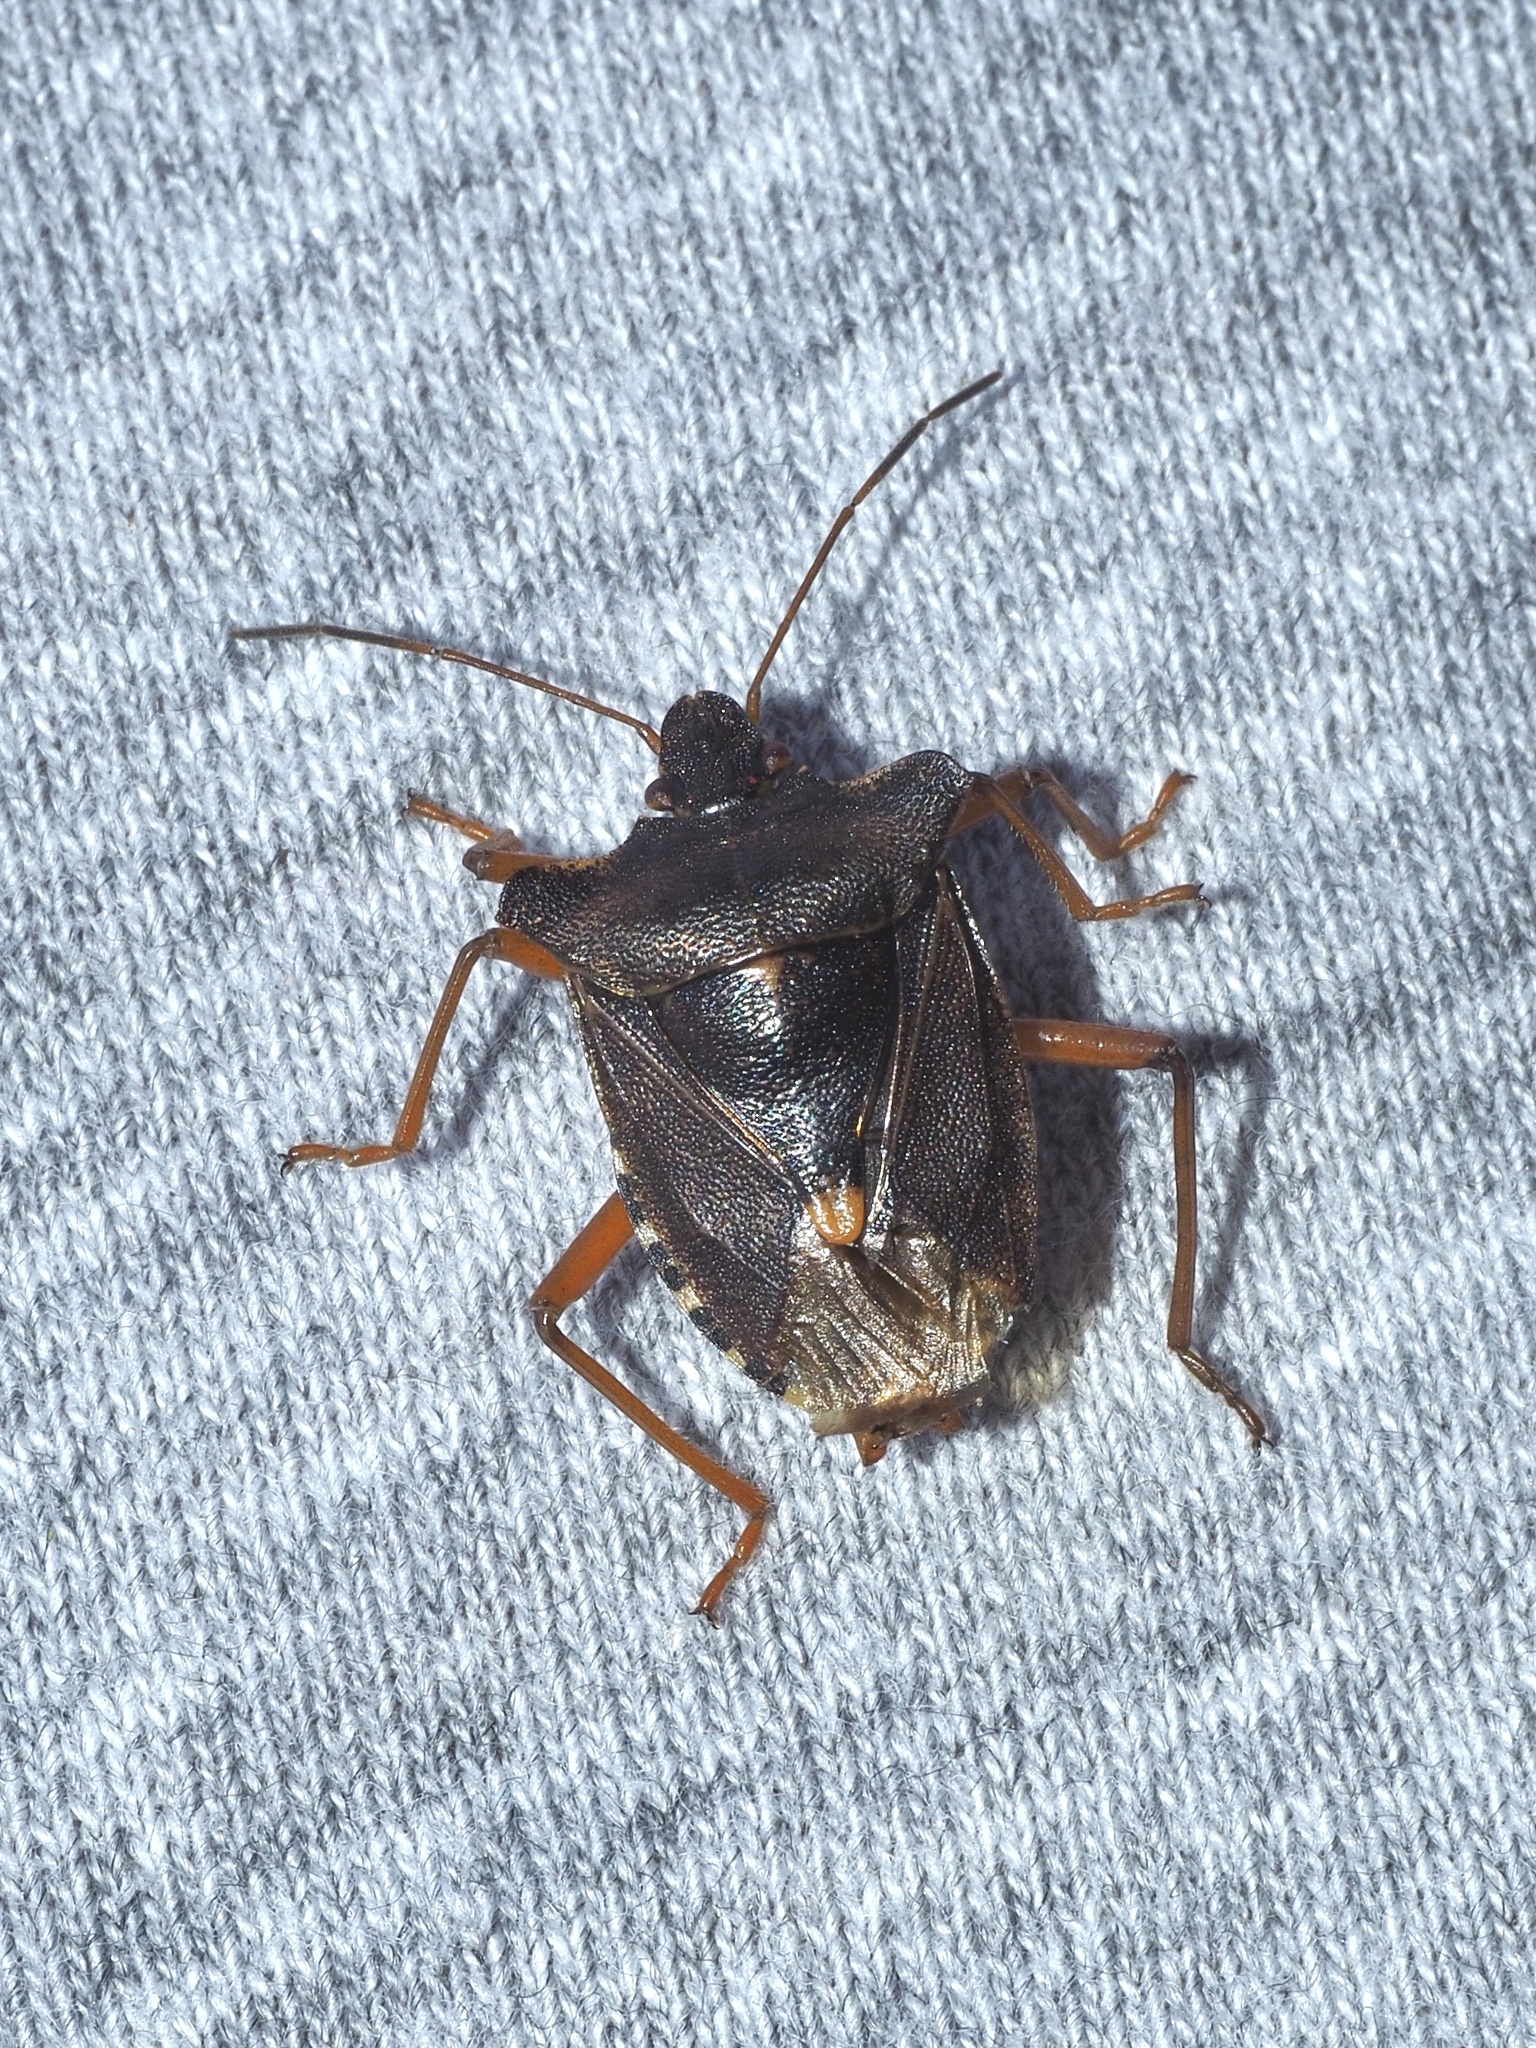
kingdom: Animalia
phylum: Arthropoda
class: Insecta
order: Hemiptera
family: Pentatomidae
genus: Pentatoma
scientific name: Pentatoma rufipes
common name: Forest bug
